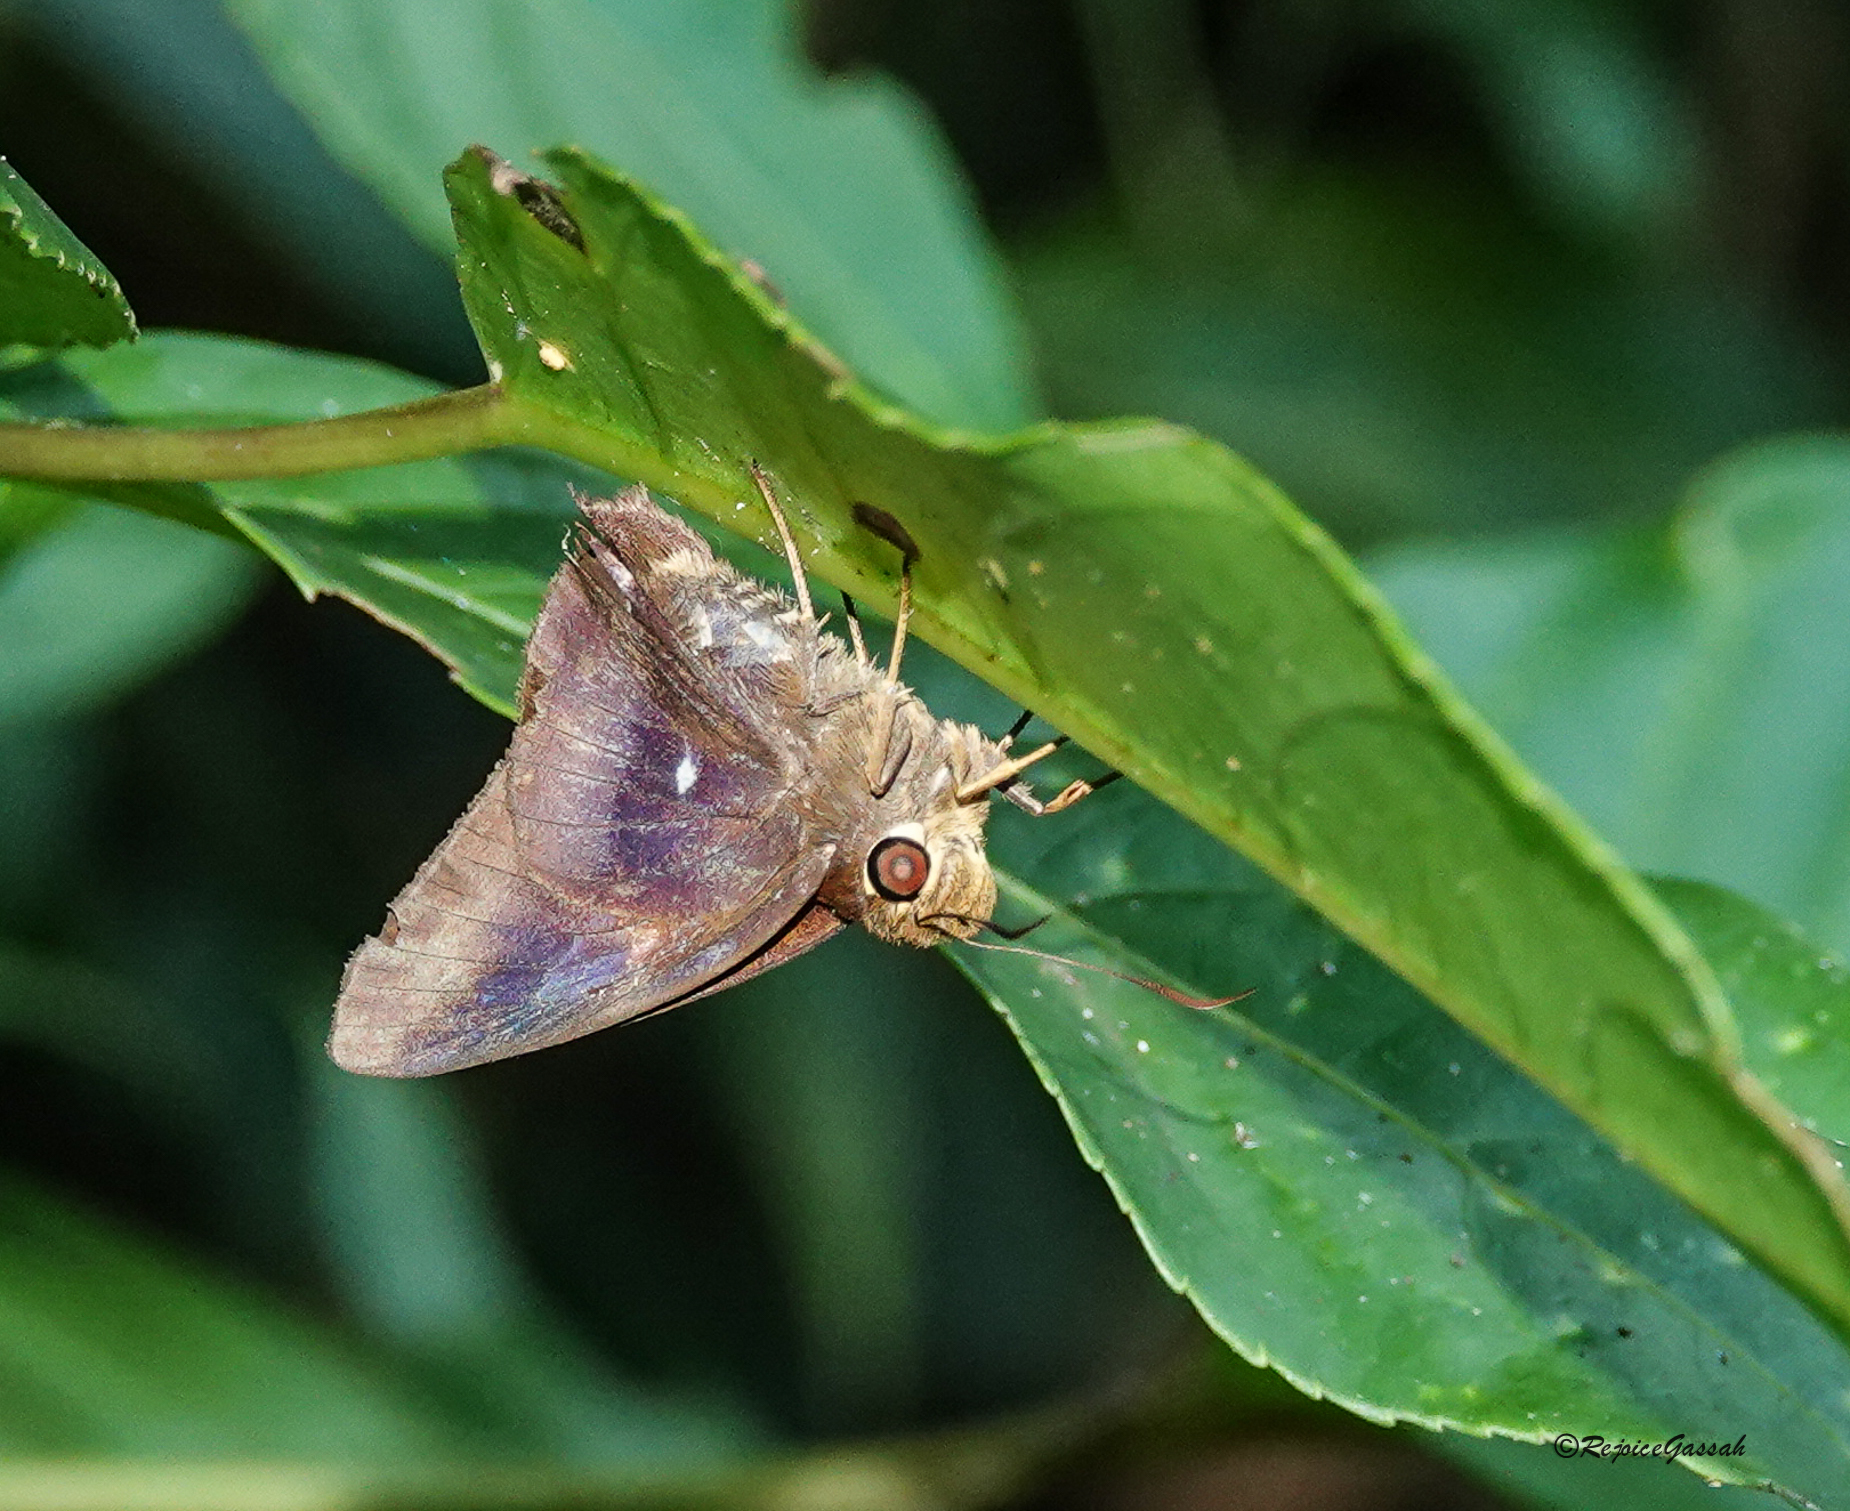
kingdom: Animalia
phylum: Arthropoda
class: Insecta
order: Lepidoptera
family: Hesperiidae
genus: Hasora
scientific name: Hasora badra
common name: Common awl
